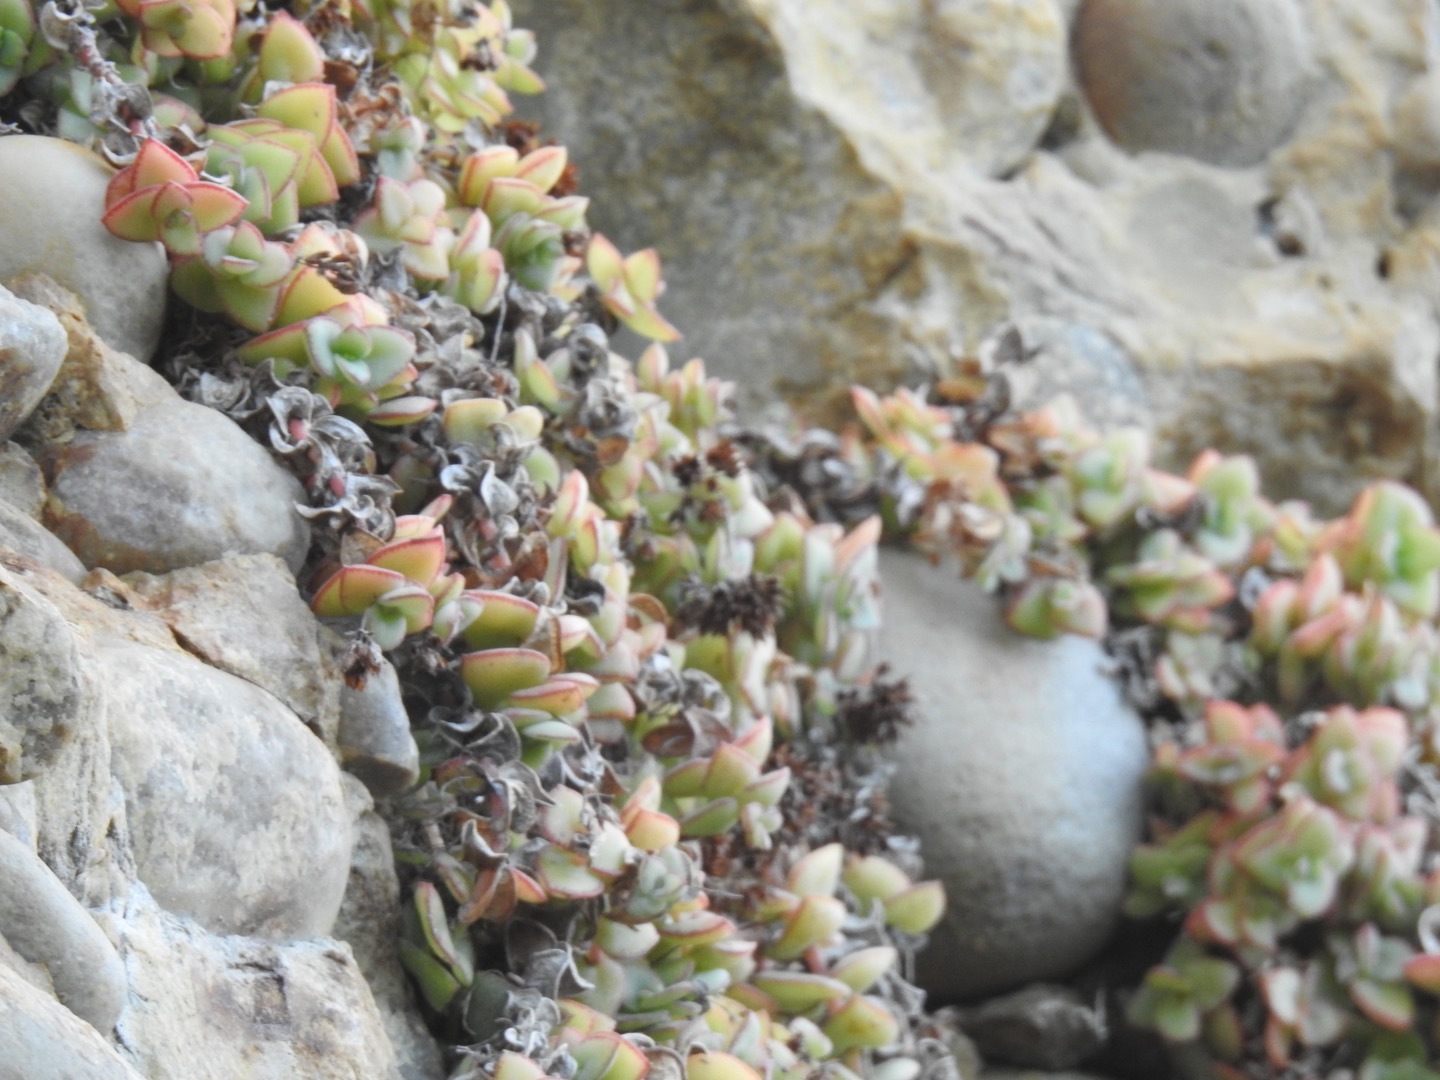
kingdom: Plantae
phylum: Tracheophyta
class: Magnoliopsida
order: Saxifragales
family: Crassulaceae
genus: Crassula
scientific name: Crassula pellucida
